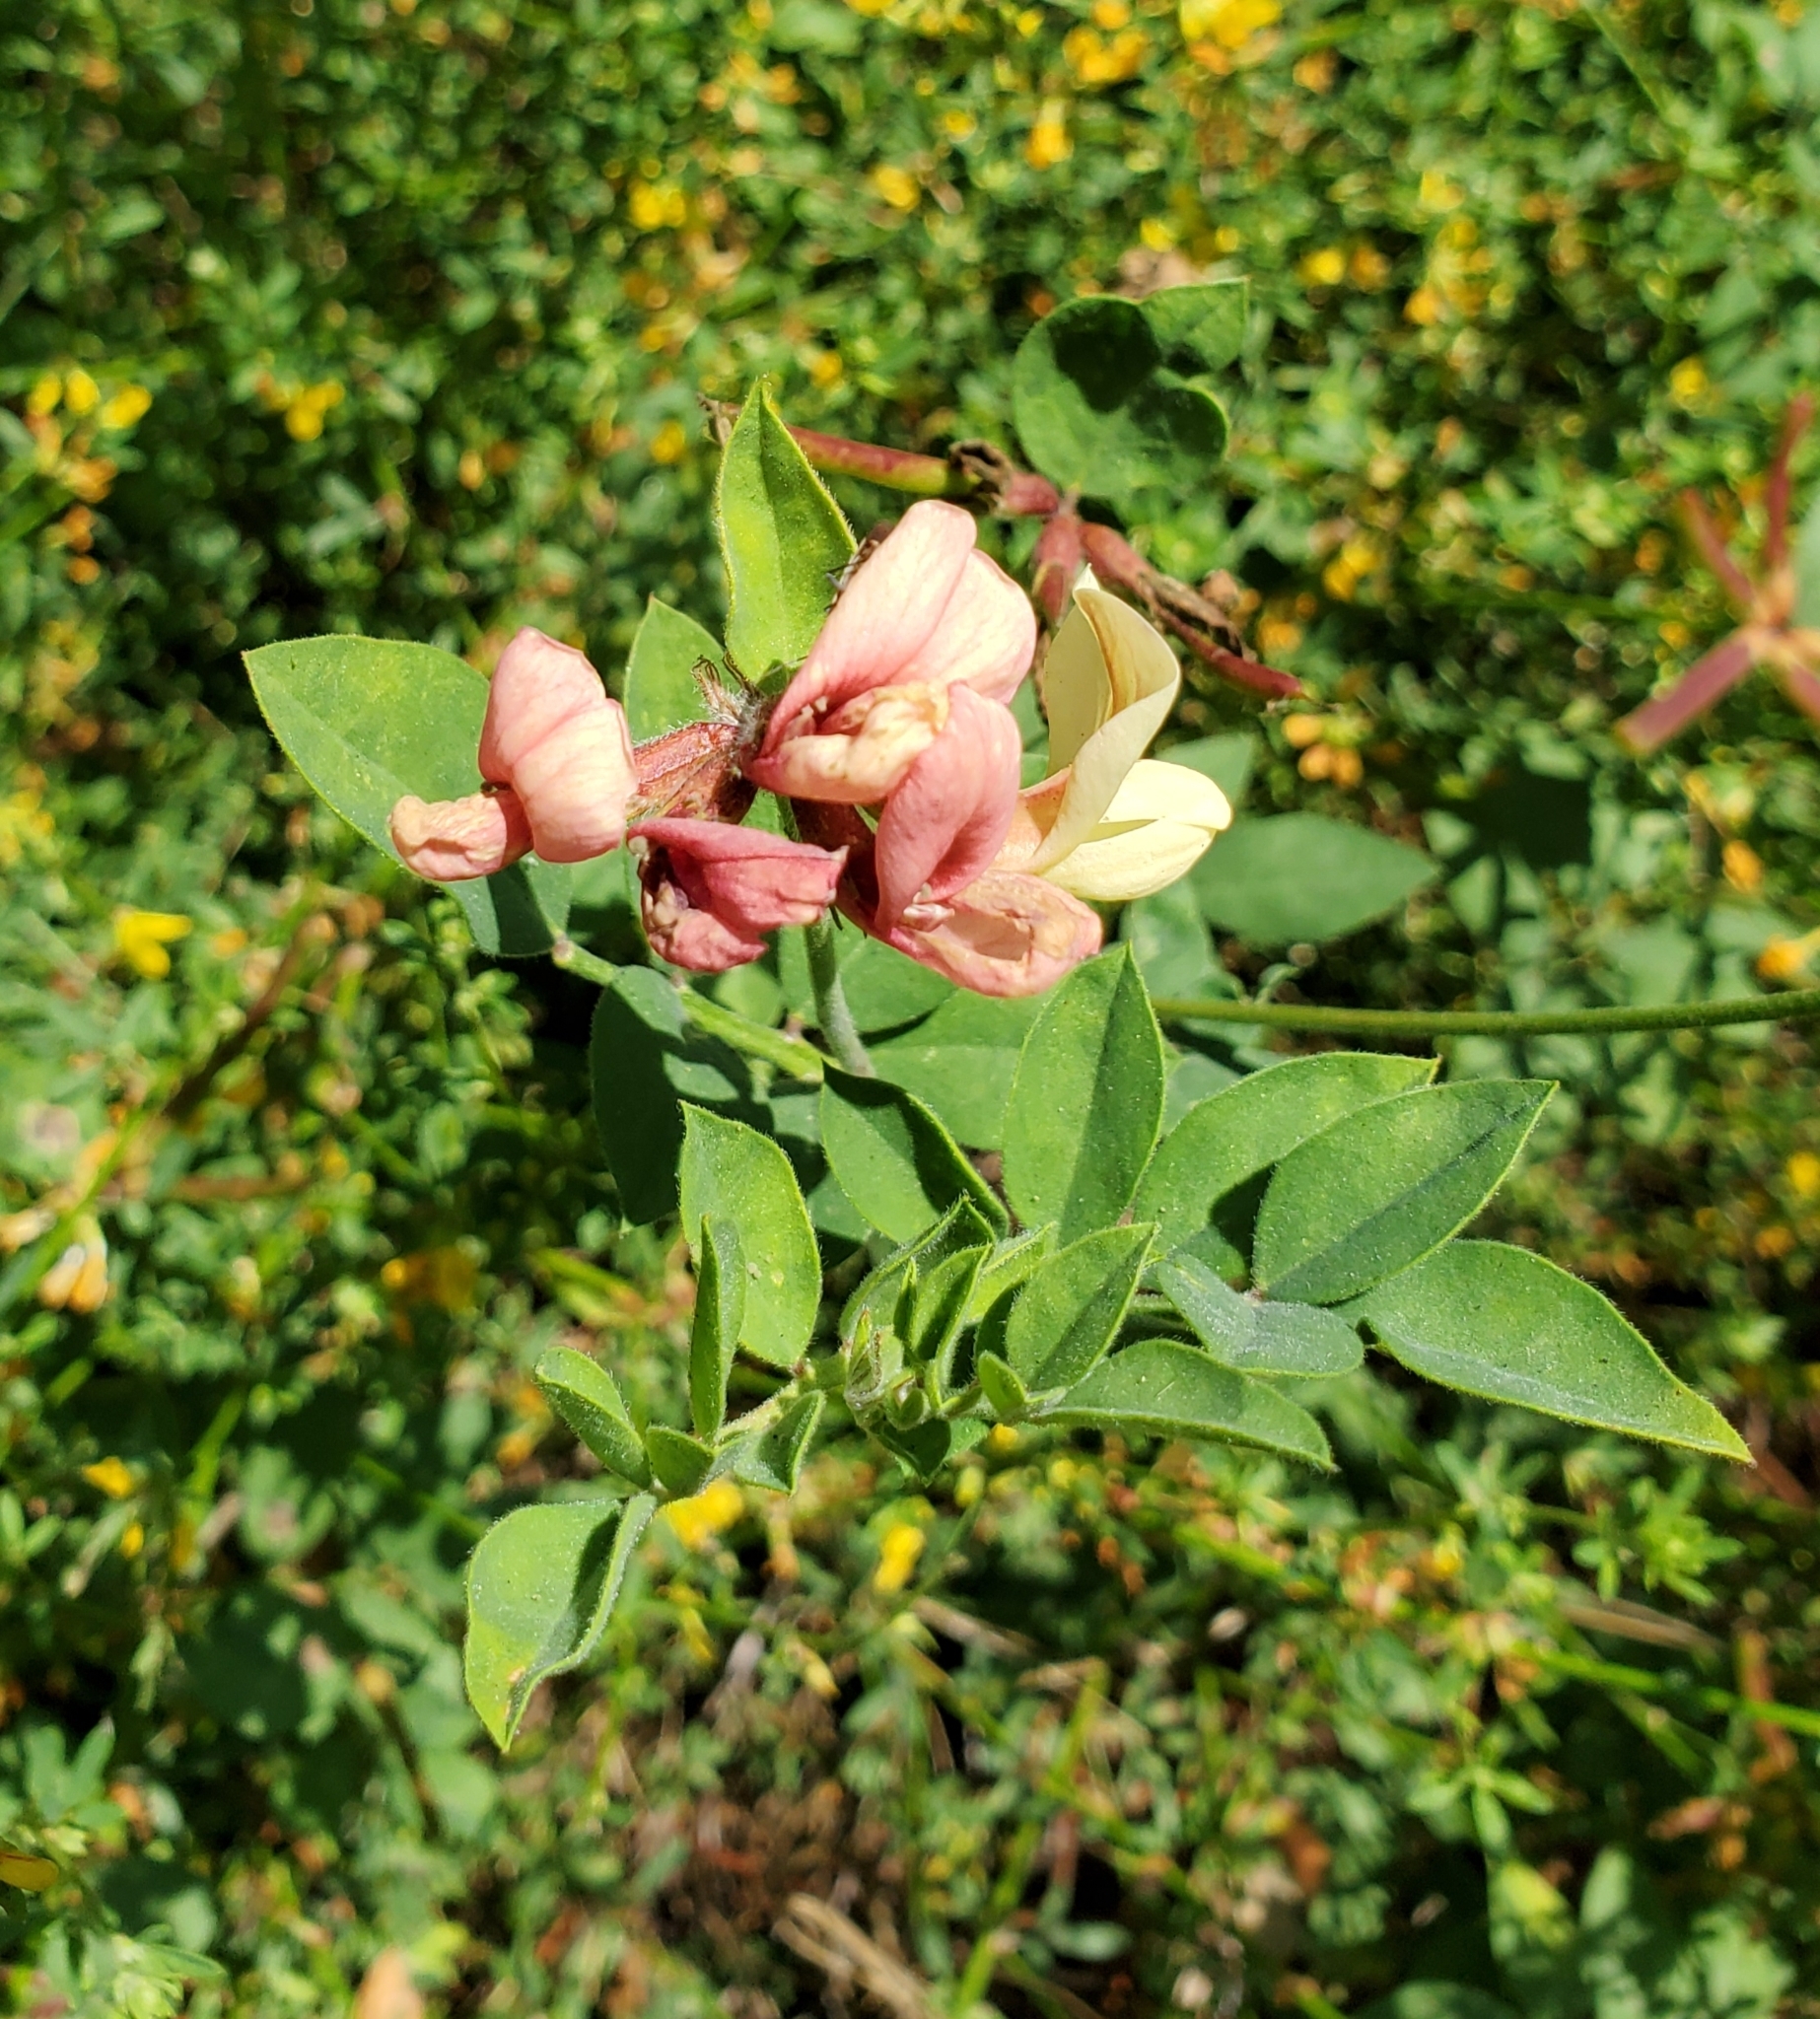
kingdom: Plantae
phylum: Tracheophyta
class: Magnoliopsida
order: Fabales
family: Fabaceae
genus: Lathyrus
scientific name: Lathyrus vestitus
